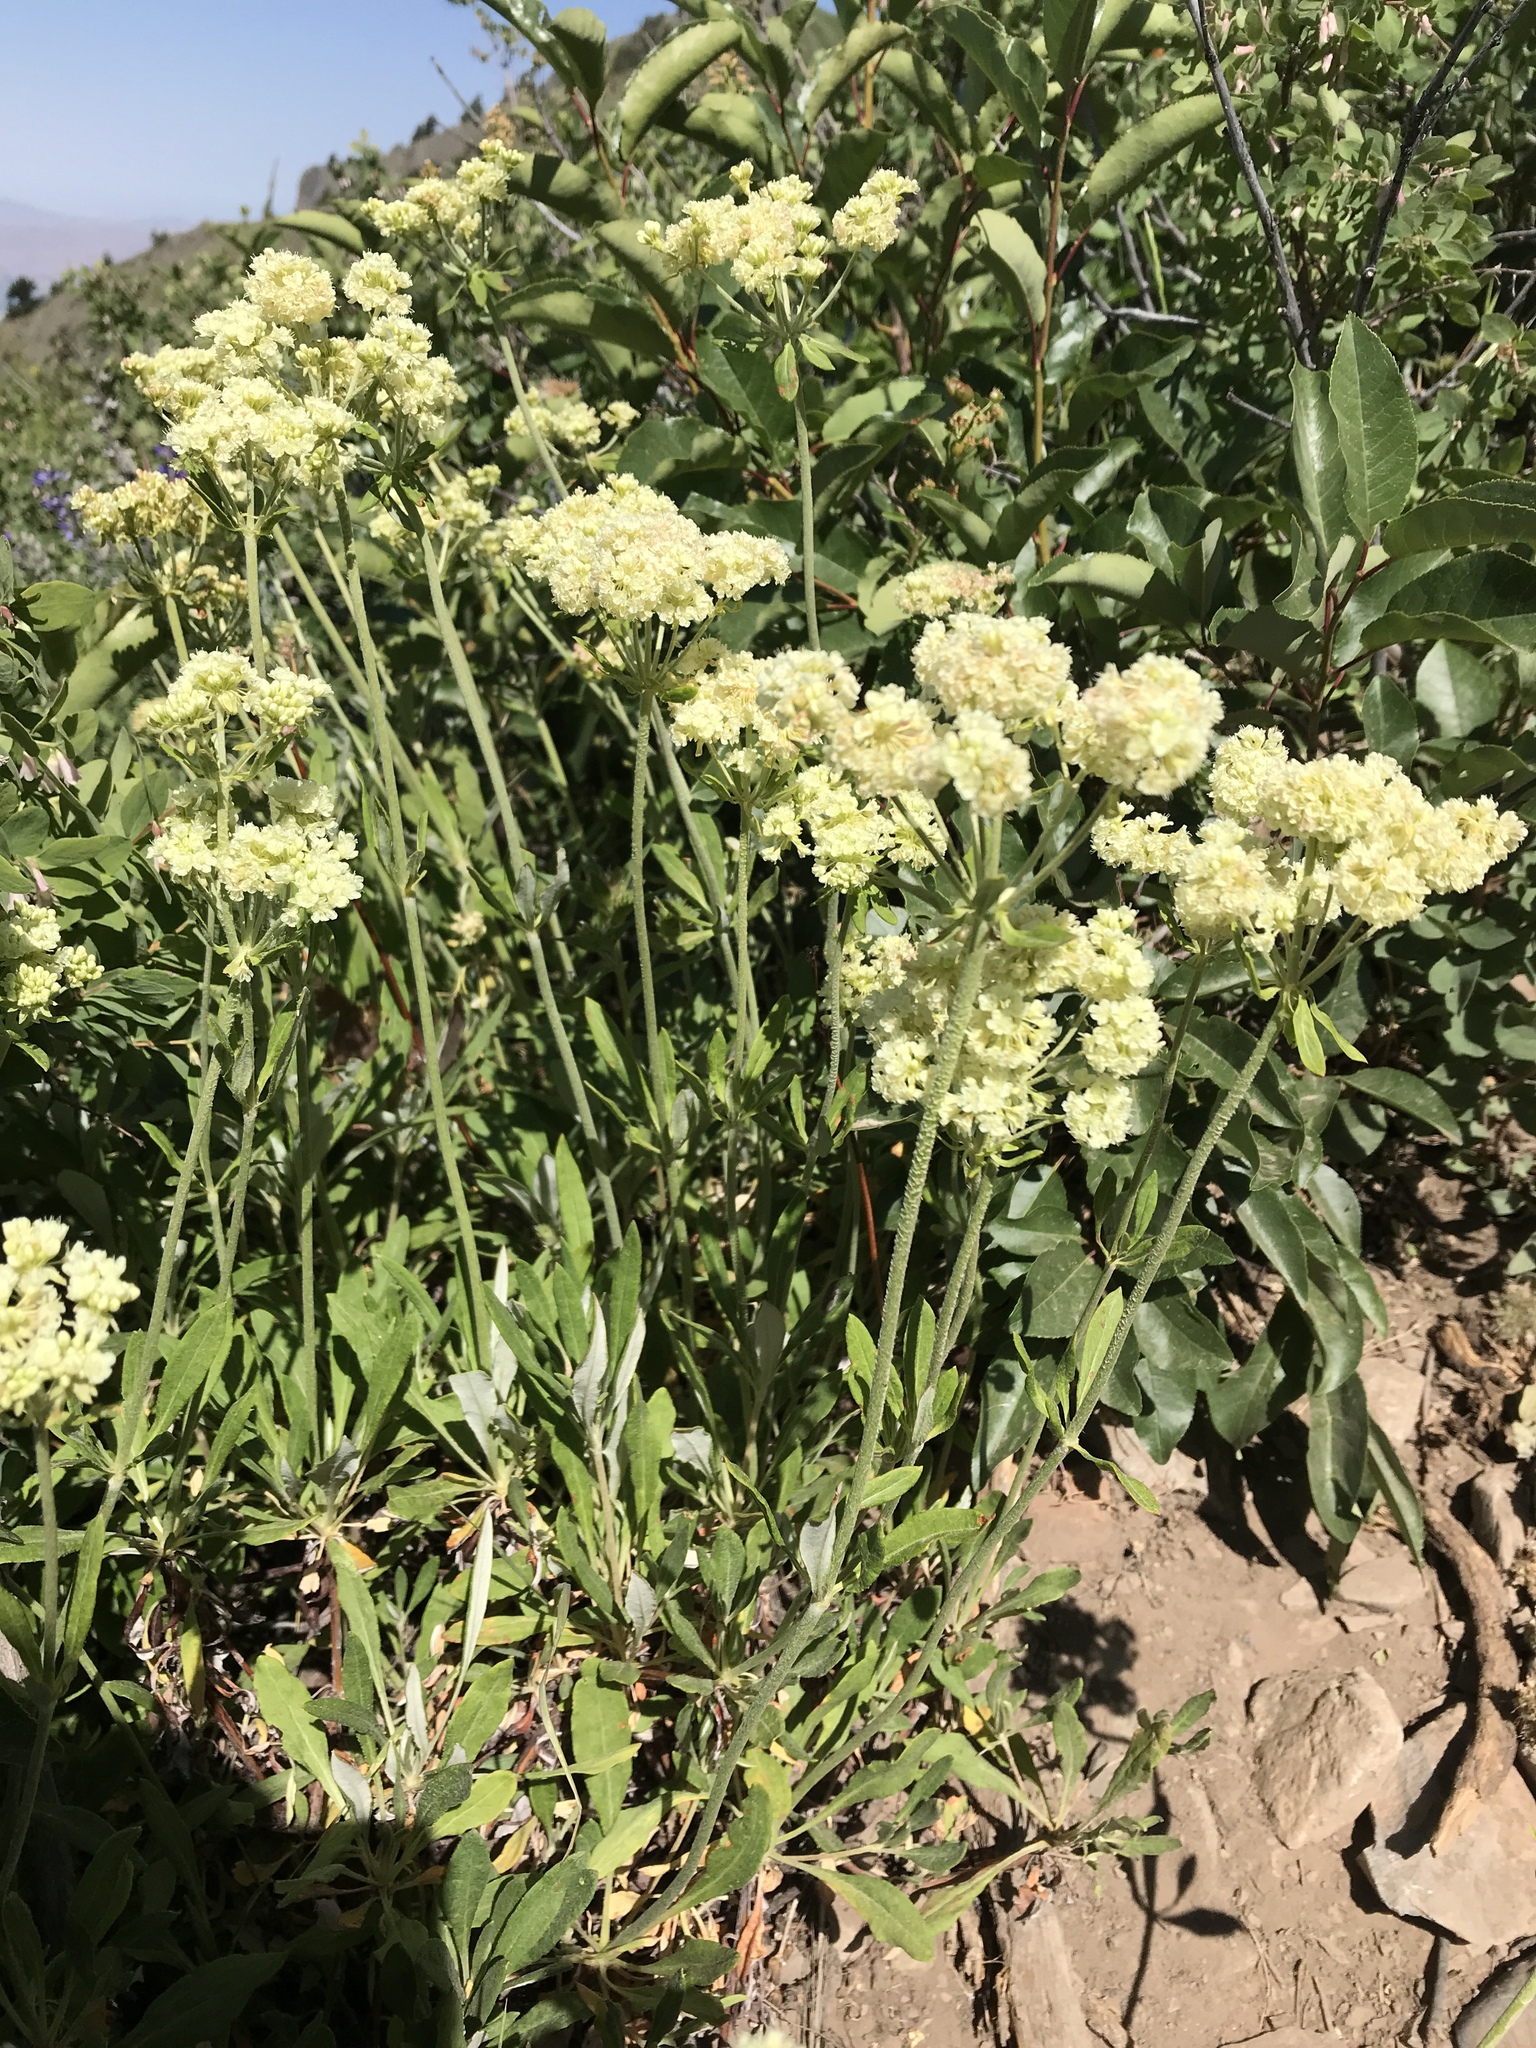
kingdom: Plantae
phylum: Tracheophyta
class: Magnoliopsida
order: Caryophyllales
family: Polygonaceae
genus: Eriogonum
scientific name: Eriogonum heracleoides
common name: Wyeth's buckwheat
